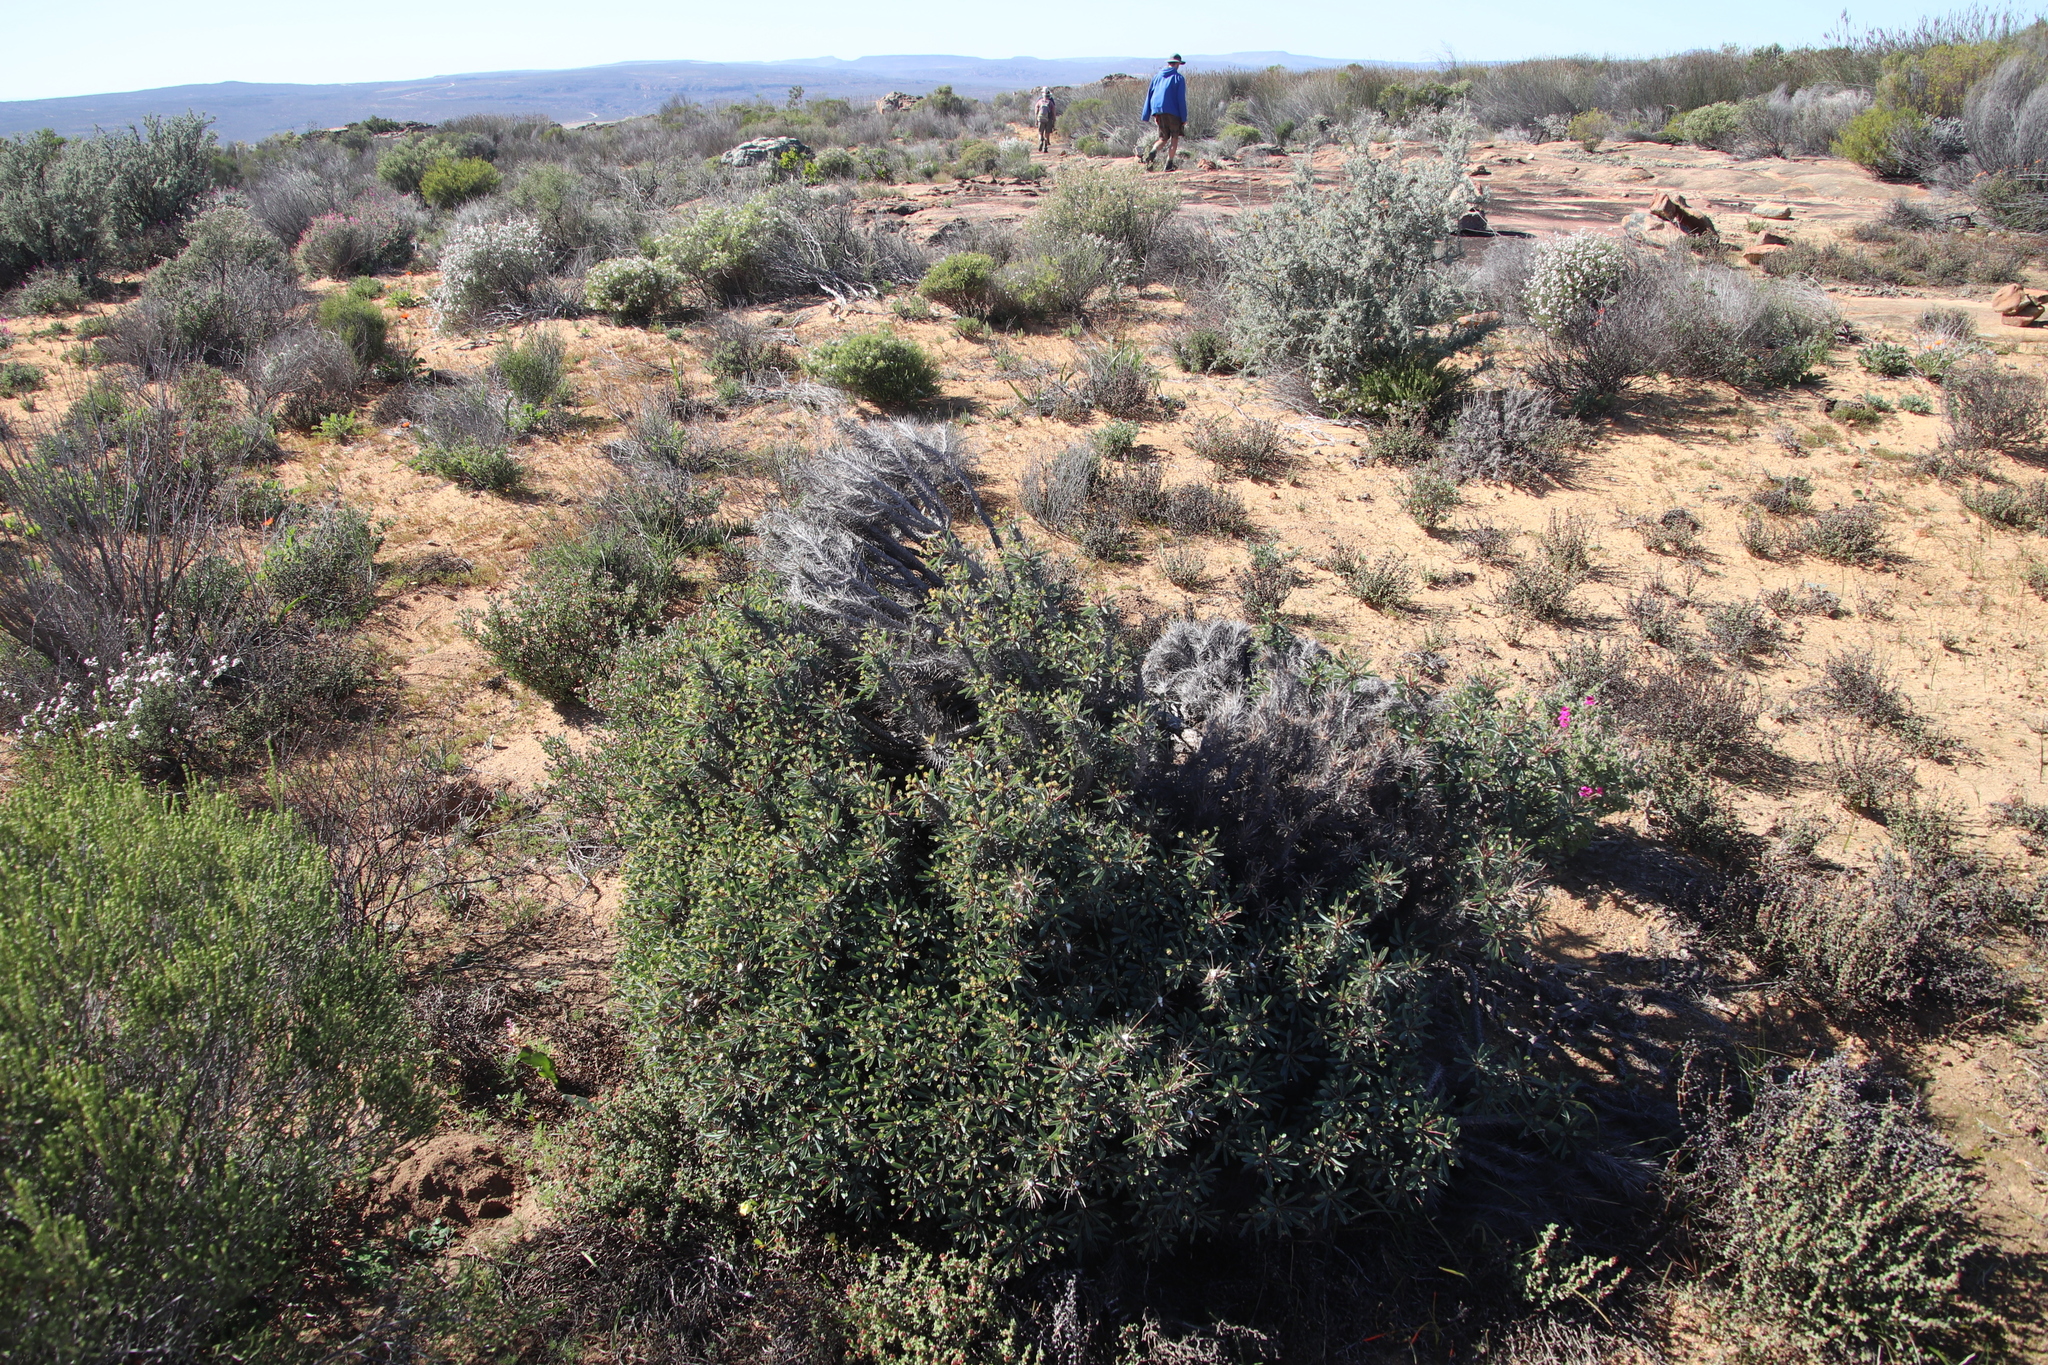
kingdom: Plantae
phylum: Tracheophyta
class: Magnoliopsida
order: Malpighiales
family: Euphorbiaceae
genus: Euphorbia
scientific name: Euphorbia loricata
